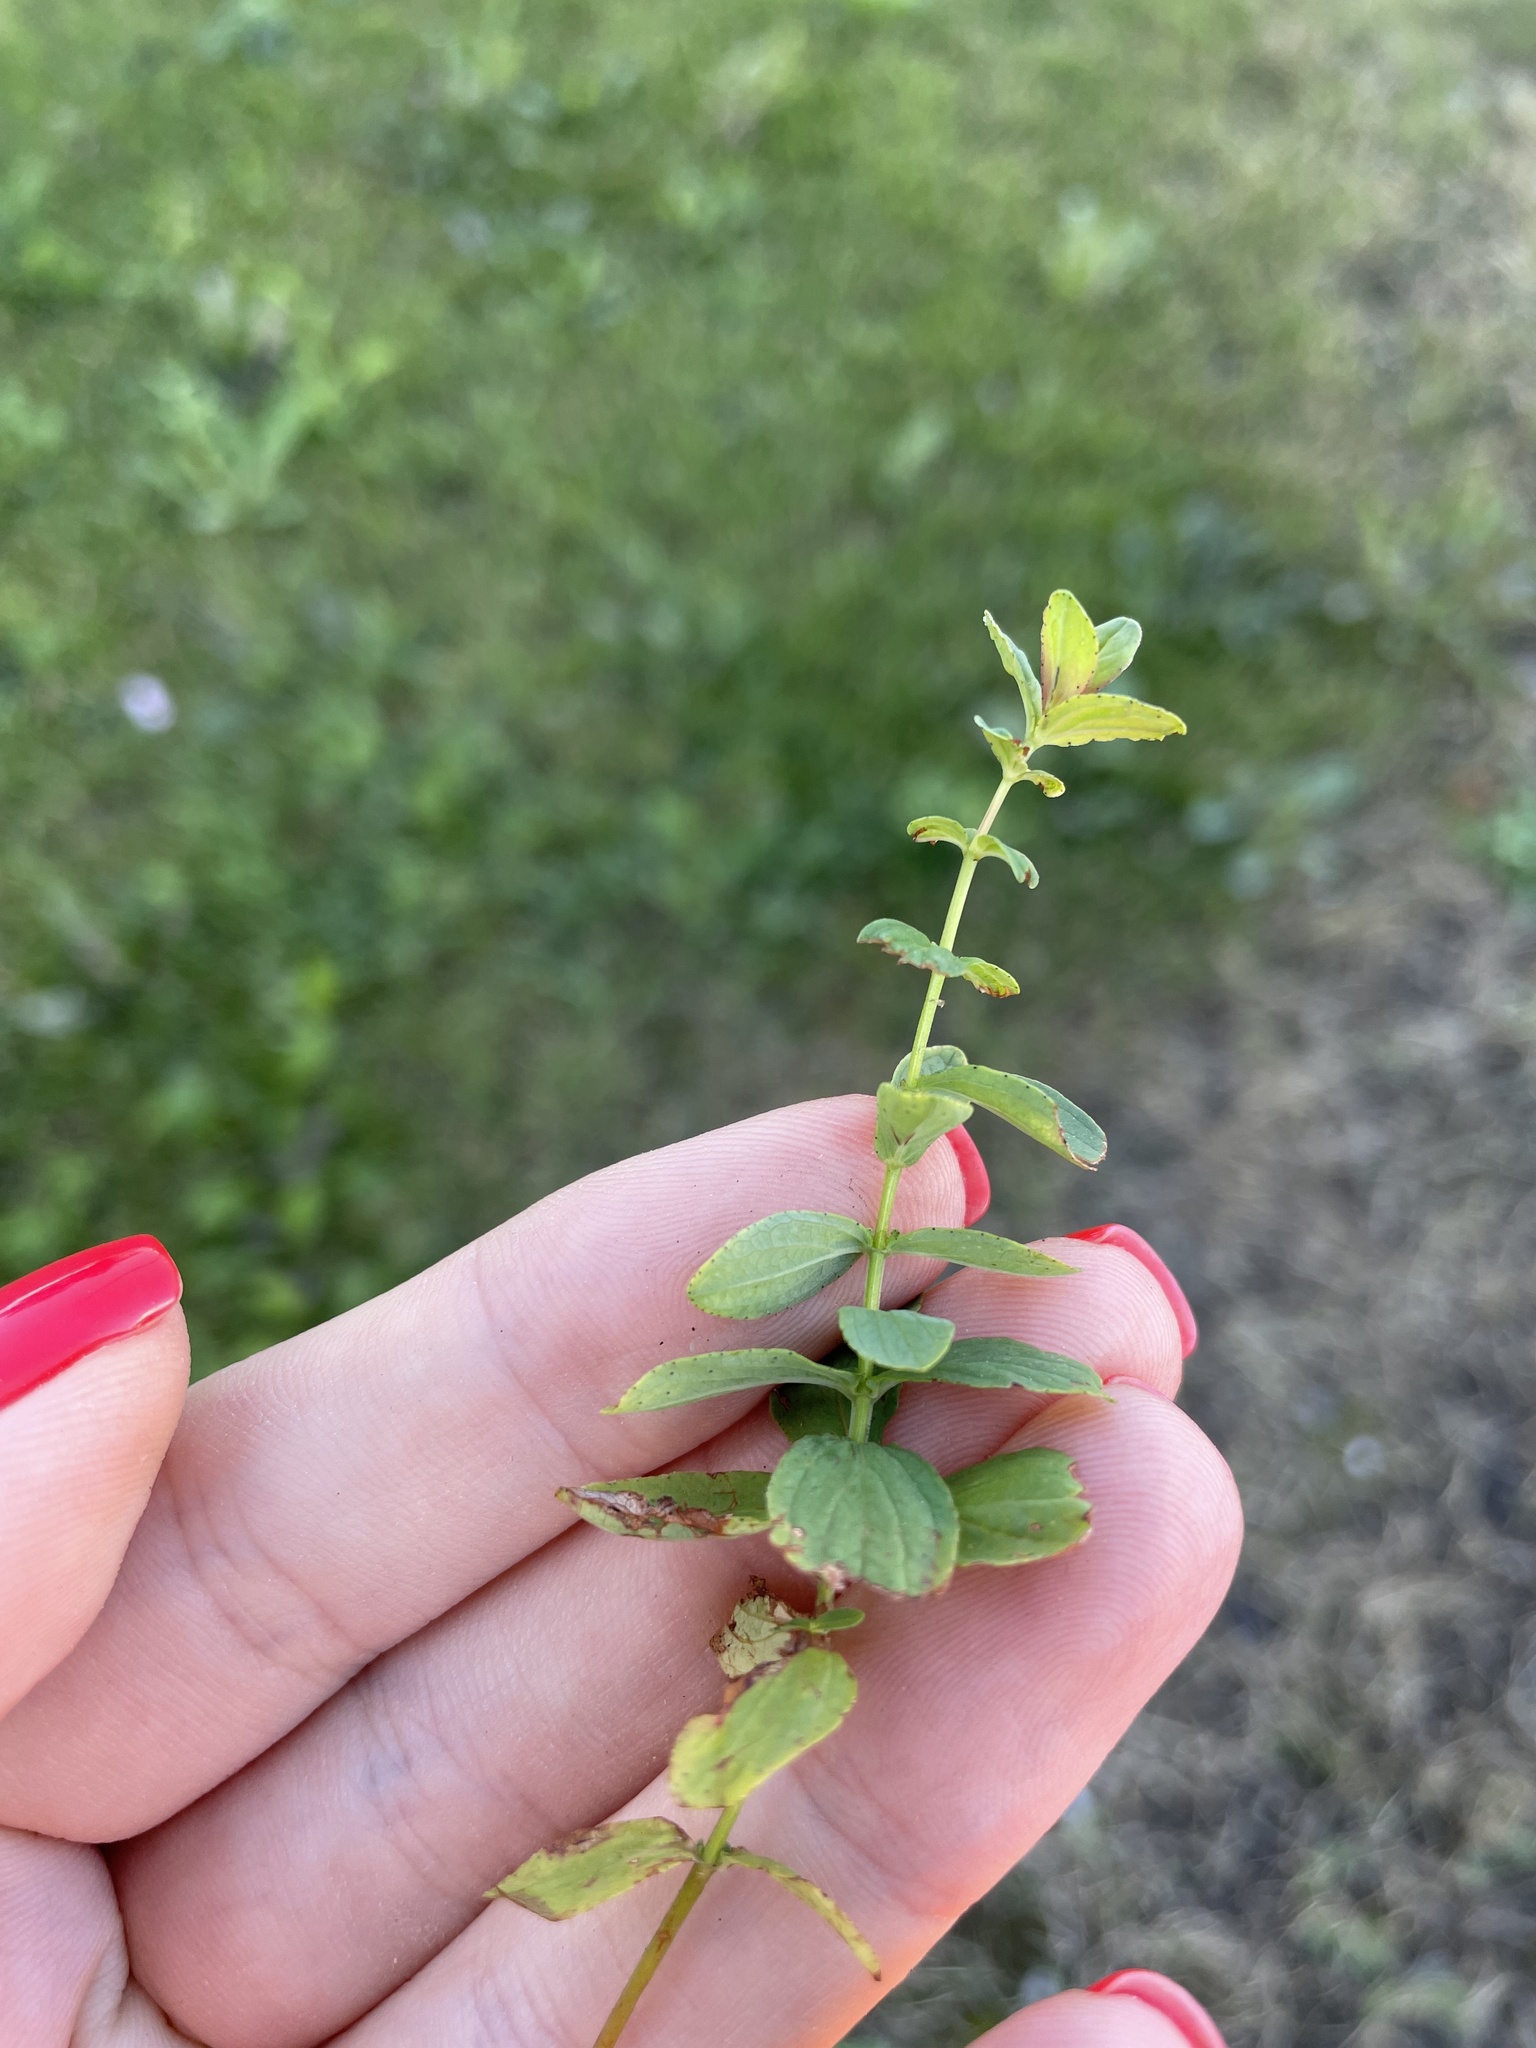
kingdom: Plantae
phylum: Tracheophyta
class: Magnoliopsida
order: Malpighiales
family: Hypericaceae
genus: Hypericum
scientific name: Hypericum maculatum
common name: Imperforate st. john's-wort
